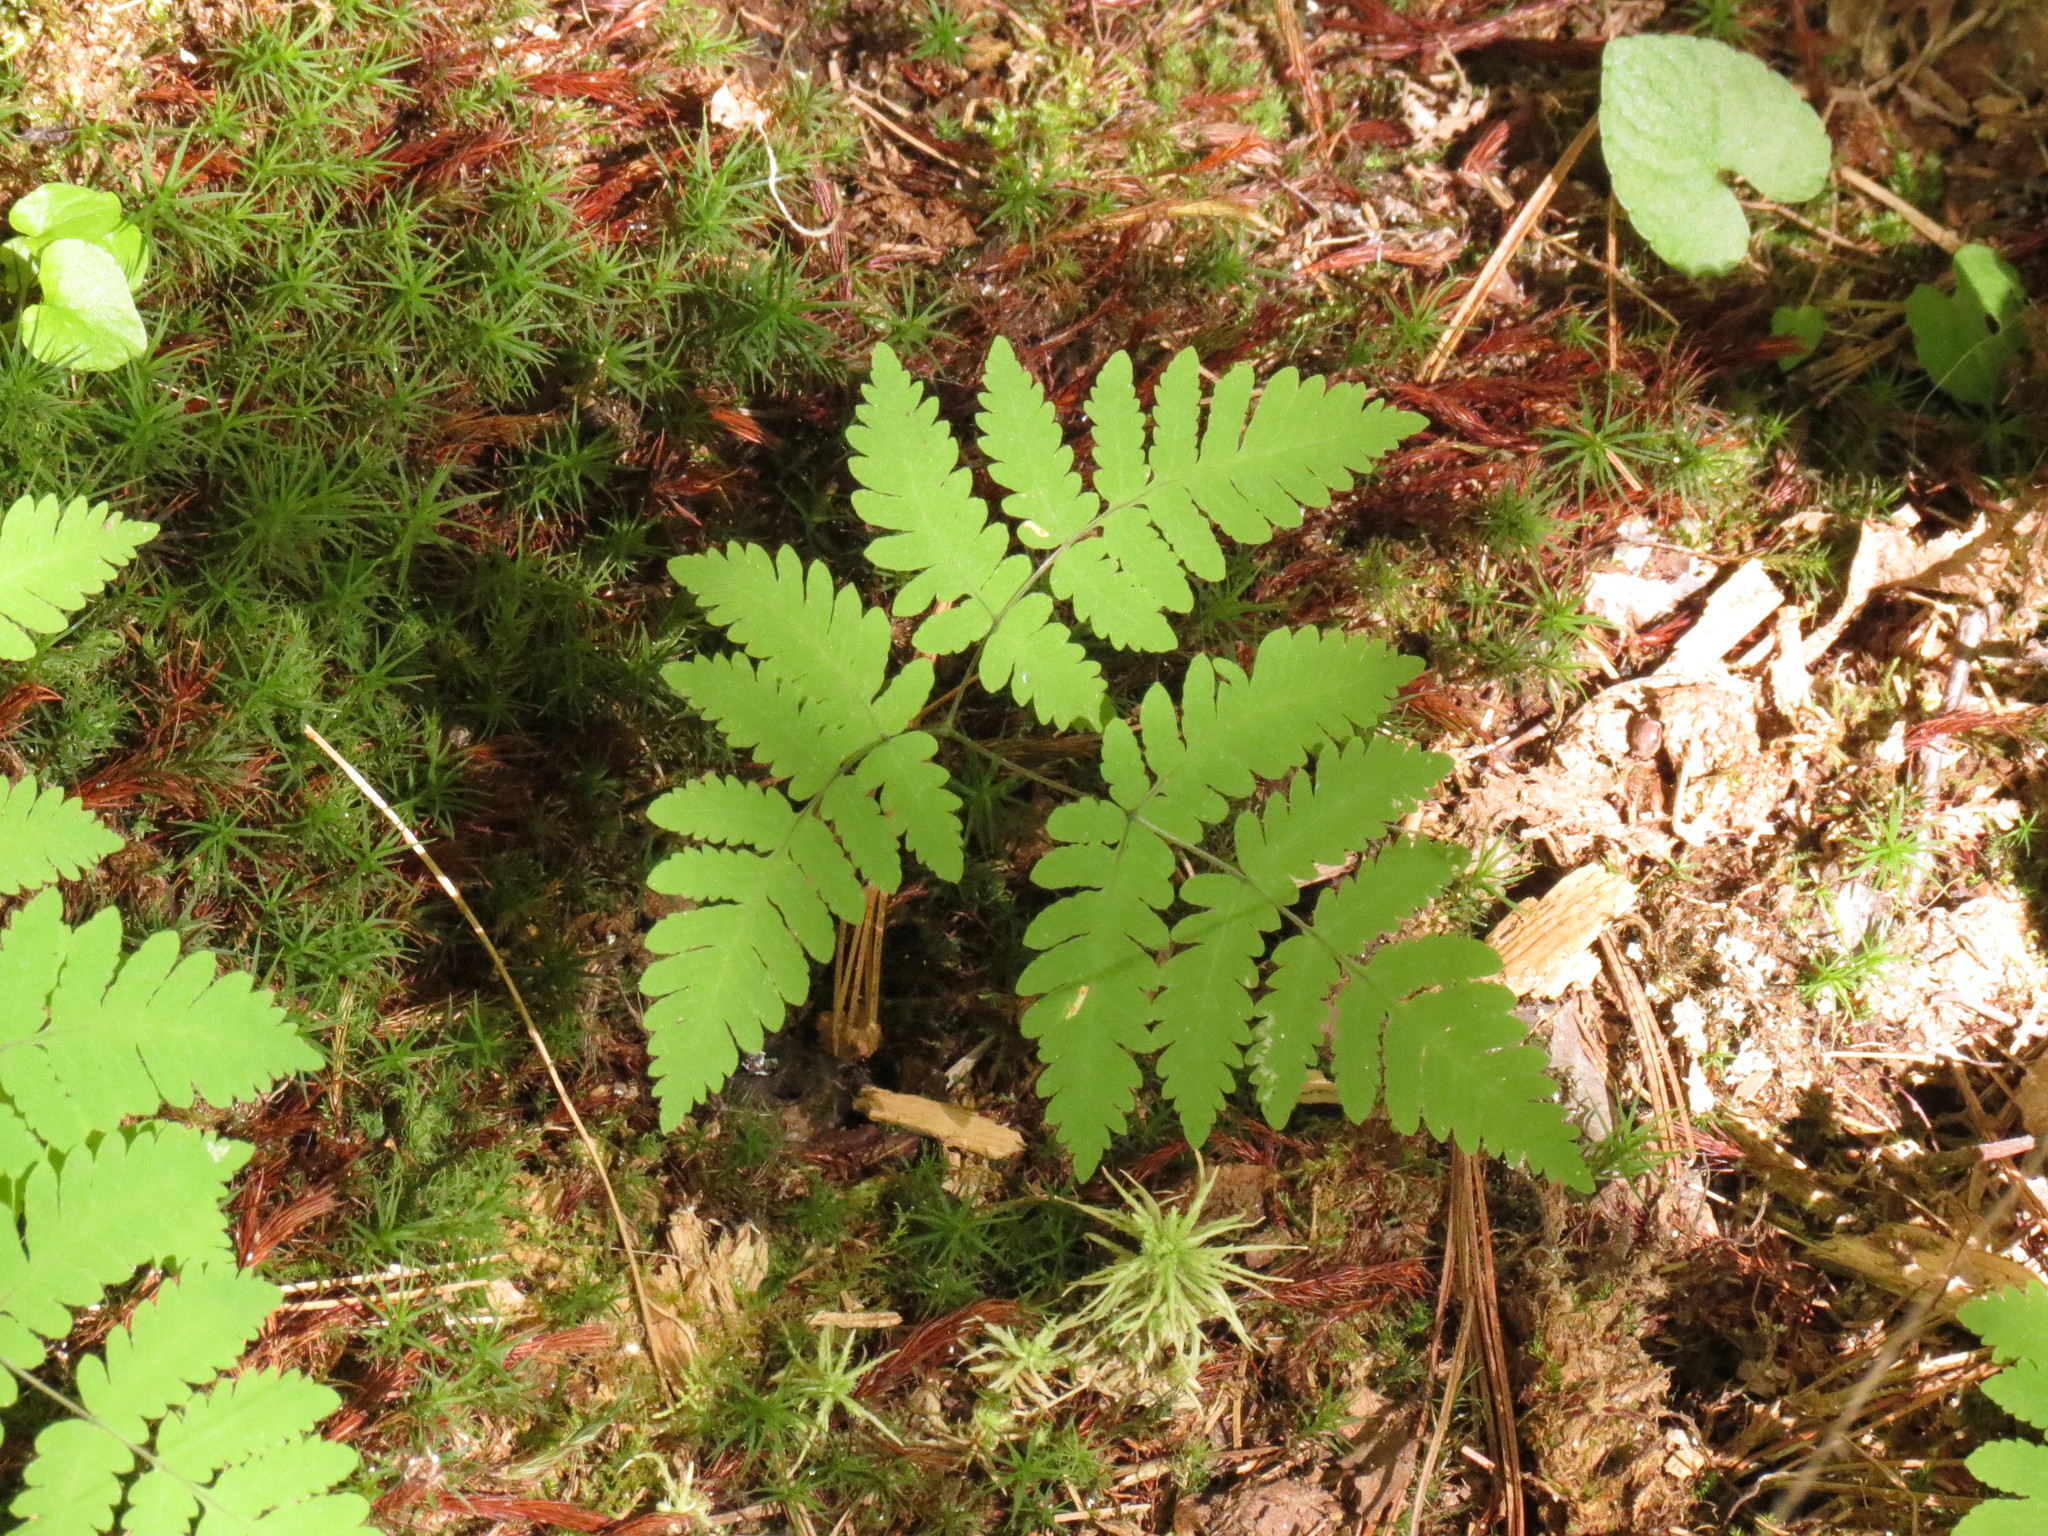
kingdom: Plantae
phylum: Tracheophyta
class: Polypodiopsida
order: Polypodiales
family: Cystopteridaceae
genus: Gymnocarpium
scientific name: Gymnocarpium dryopteris
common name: Oak fern
